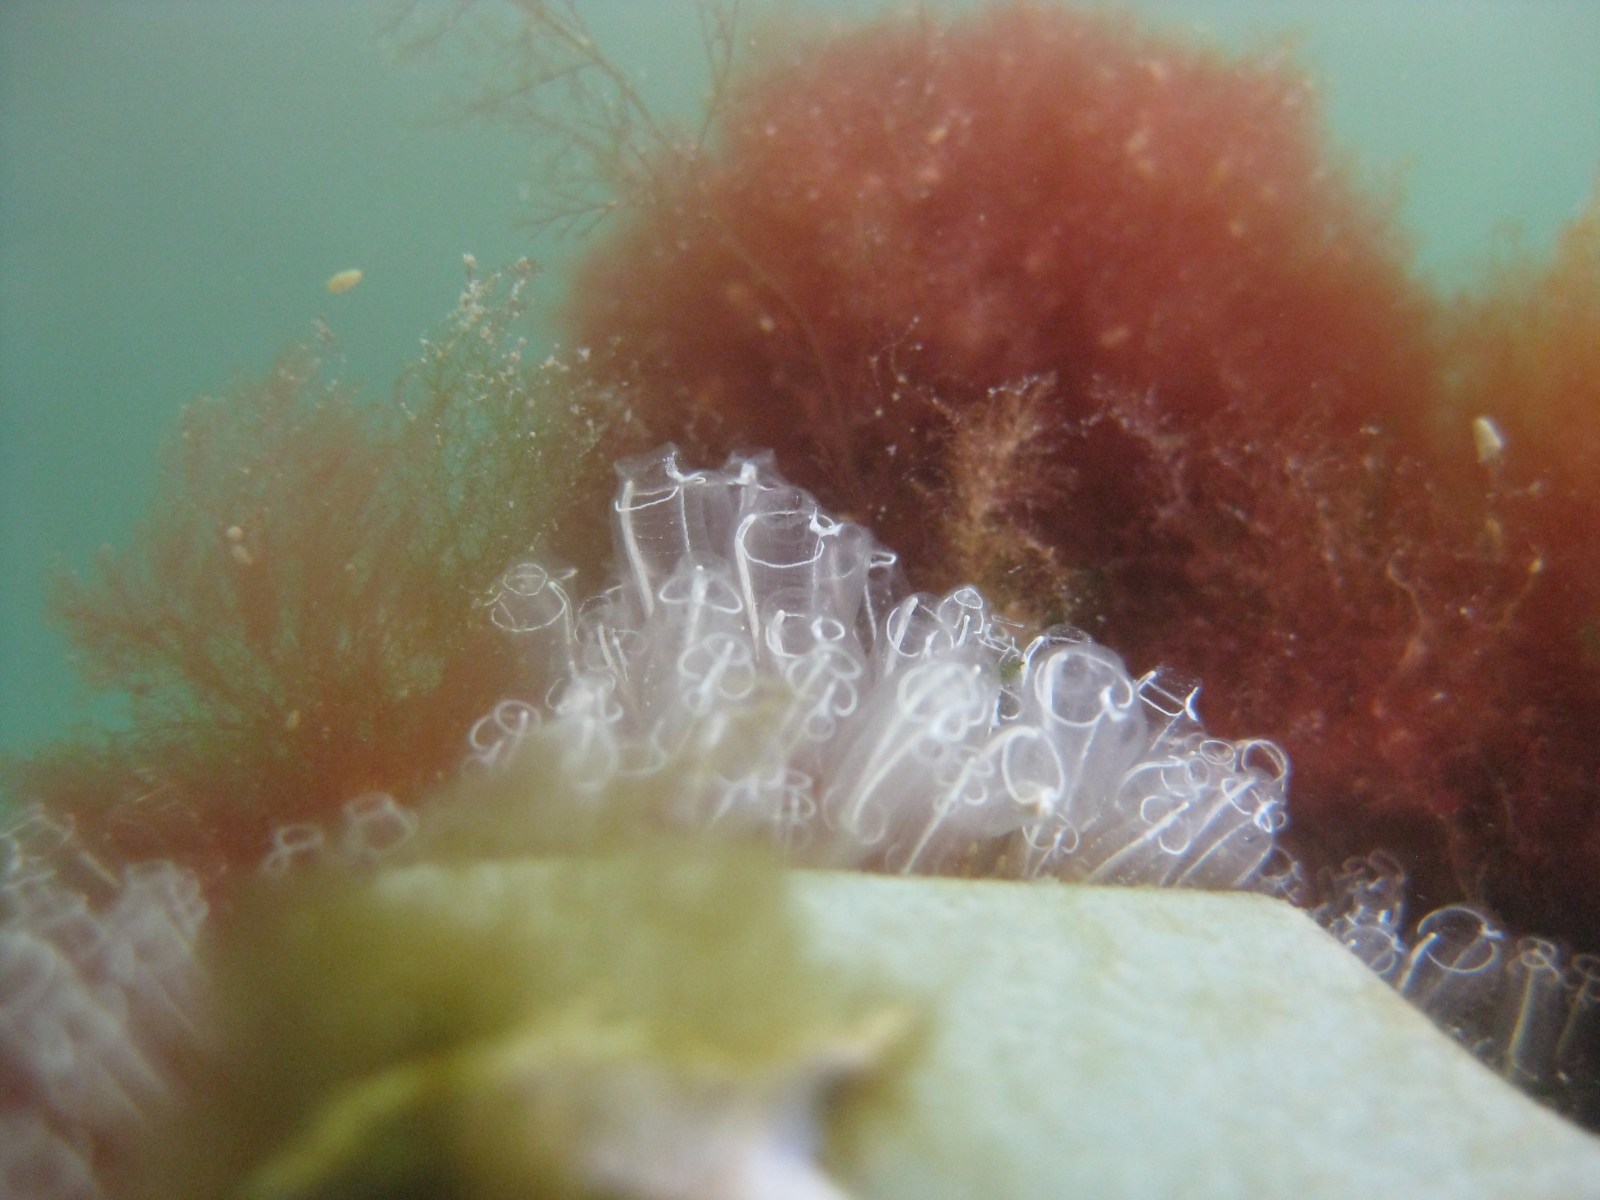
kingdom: Animalia
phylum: Chordata
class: Ascidiacea
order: Aplousobranchia
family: Clavelinidae
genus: Clavelina
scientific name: Clavelina lepadiformis
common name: Light bulb tunicate
